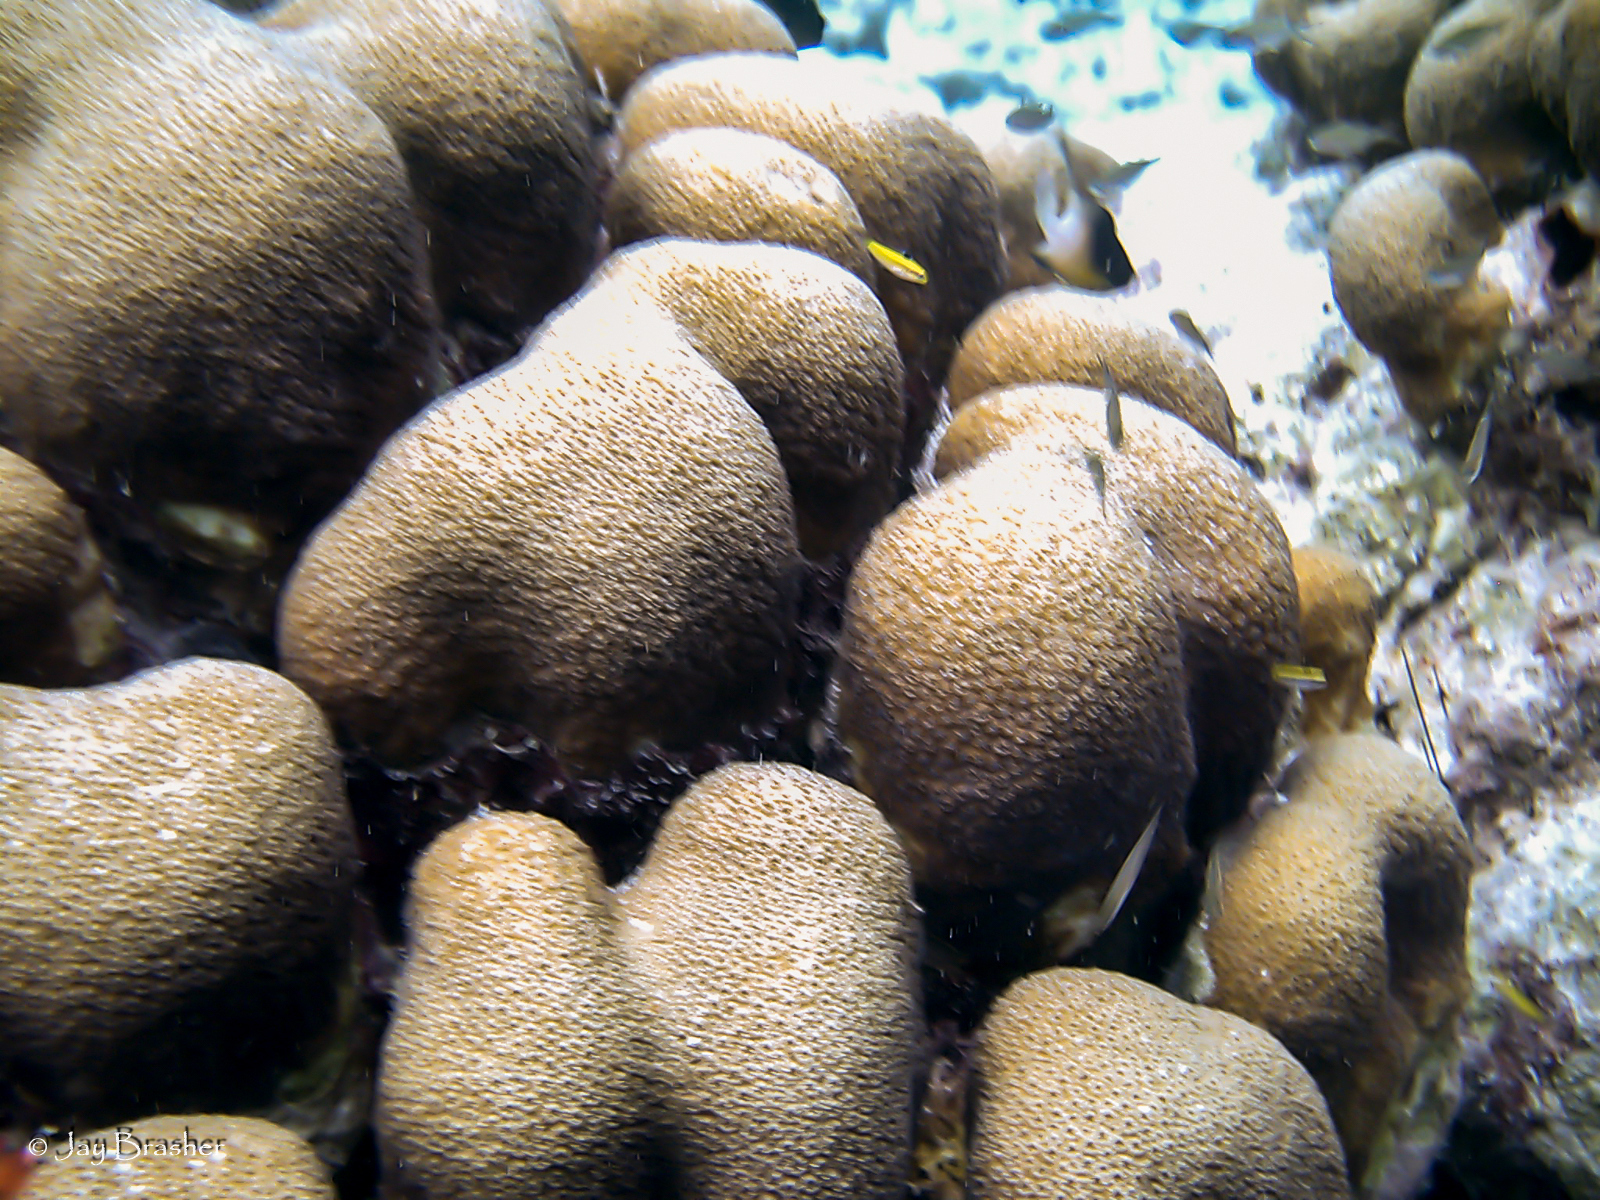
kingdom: Animalia
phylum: Cnidaria
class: Anthozoa
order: Scleractinia
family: Merulinidae
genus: Orbicella
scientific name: Orbicella annularis
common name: Boulder star coral
